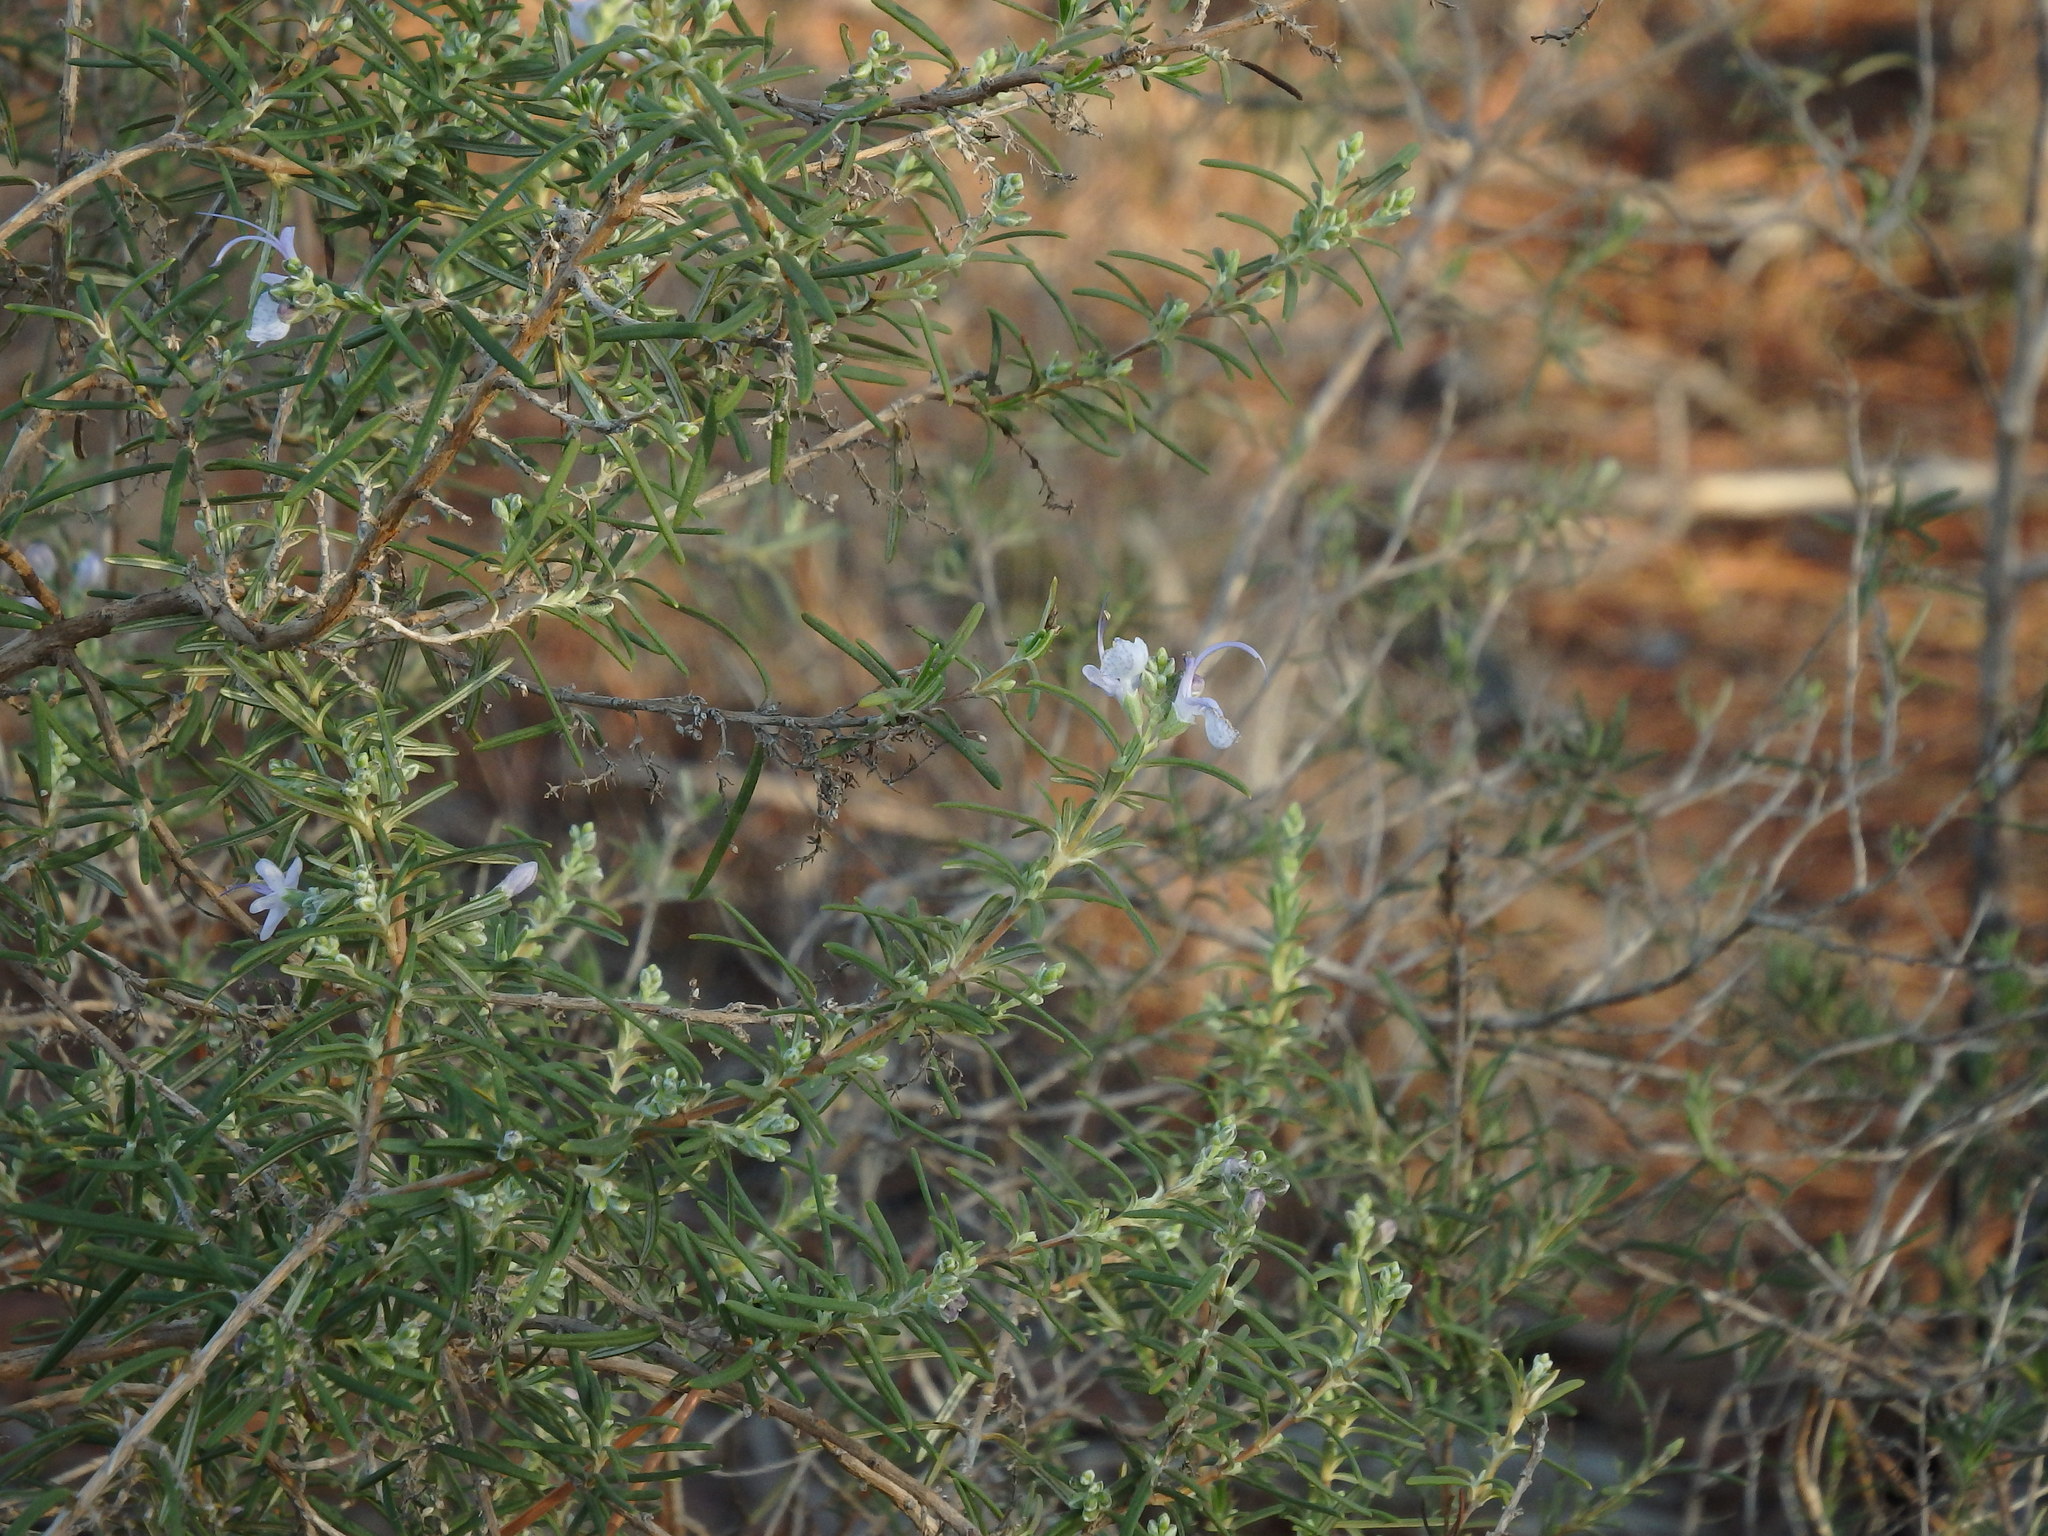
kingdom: Plantae
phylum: Tracheophyta
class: Magnoliopsida
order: Lamiales
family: Lamiaceae
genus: Salvia
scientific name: Salvia rosmarinus
